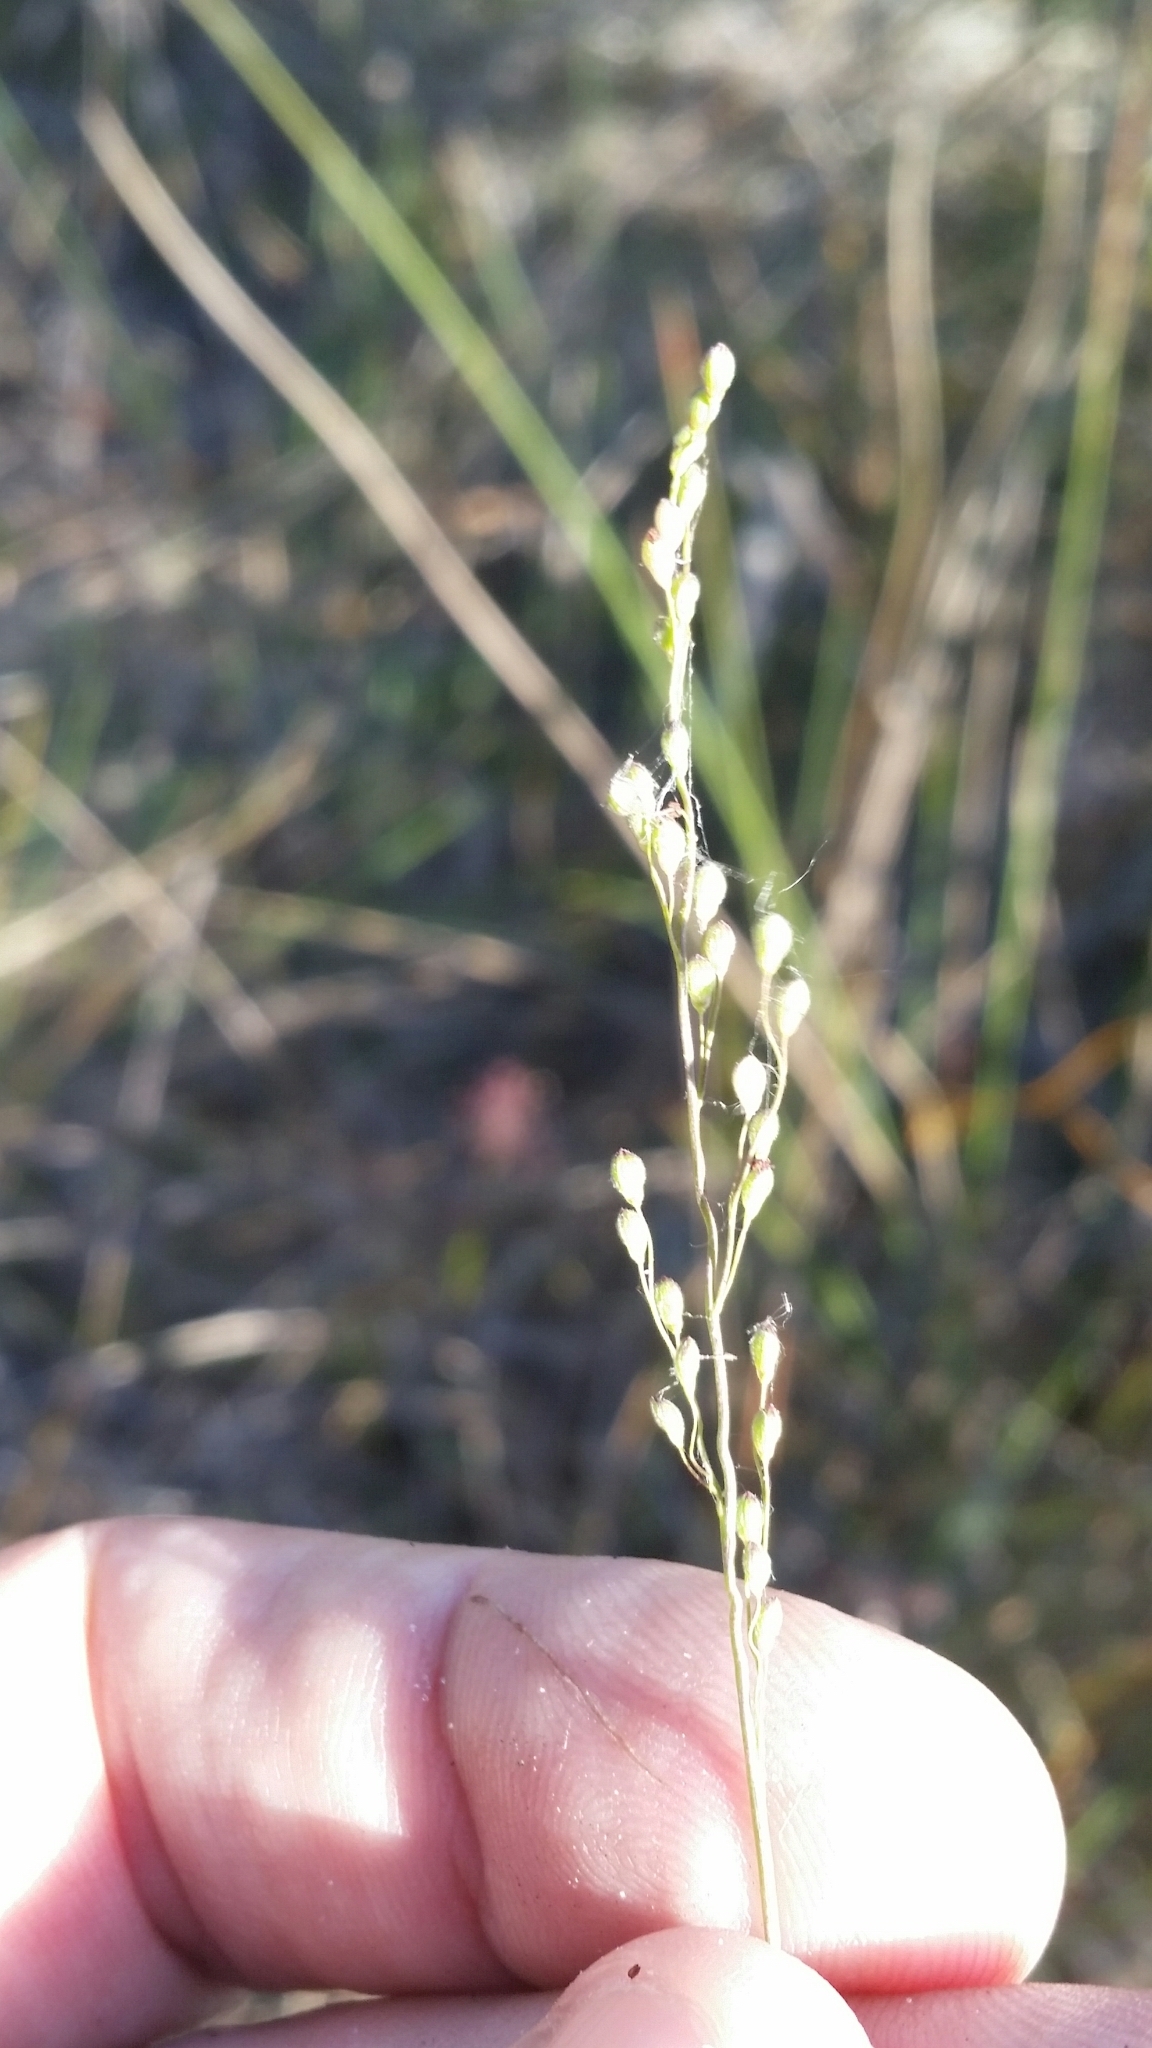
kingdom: Plantae
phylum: Tracheophyta
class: Liliopsida
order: Poales
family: Poaceae
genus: Dichanthelium
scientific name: Dichanthelium neuranthum
